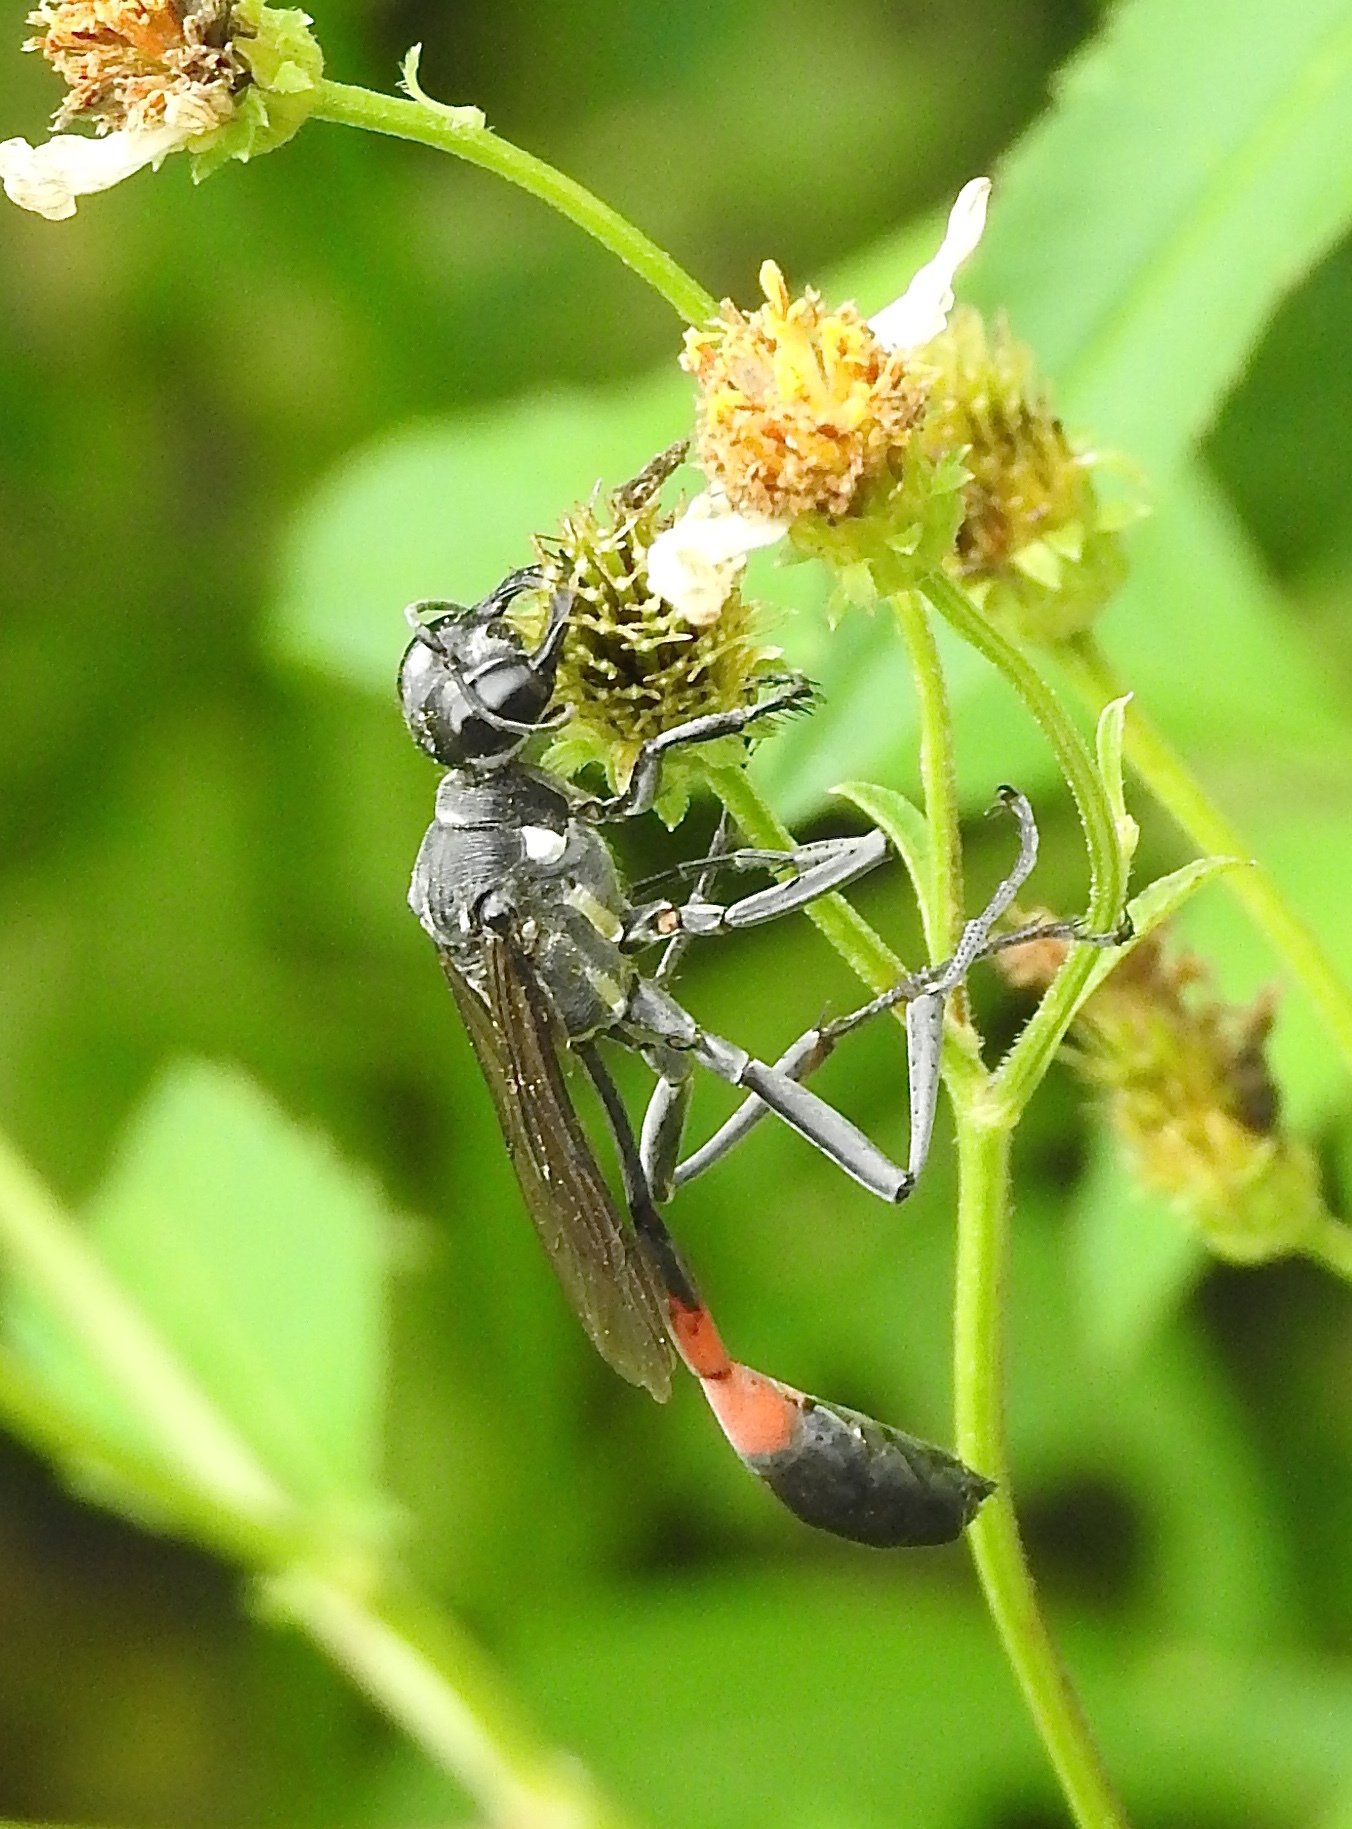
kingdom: Animalia
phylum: Arthropoda
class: Insecta
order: Hymenoptera
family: Sphecidae
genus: Ammophila
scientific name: Ammophila procera
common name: Common thread-waisted wasp
